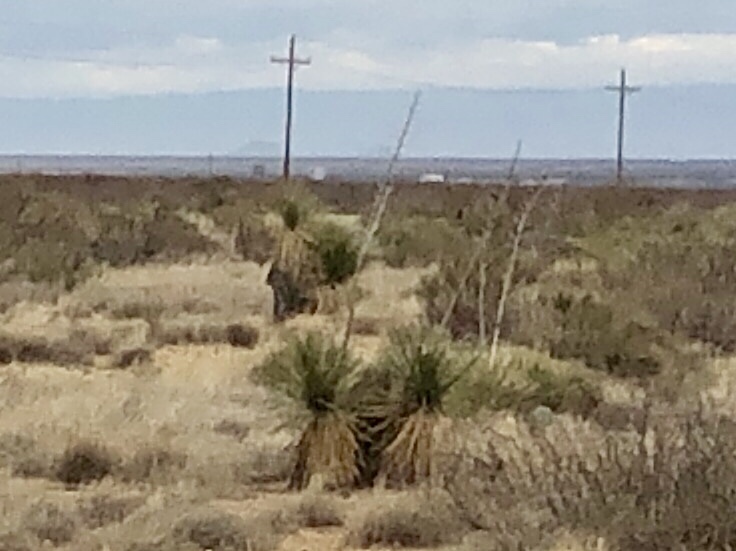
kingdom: Plantae
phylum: Tracheophyta
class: Liliopsida
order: Asparagales
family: Asparagaceae
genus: Yucca
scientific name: Yucca elata
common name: Palmella
